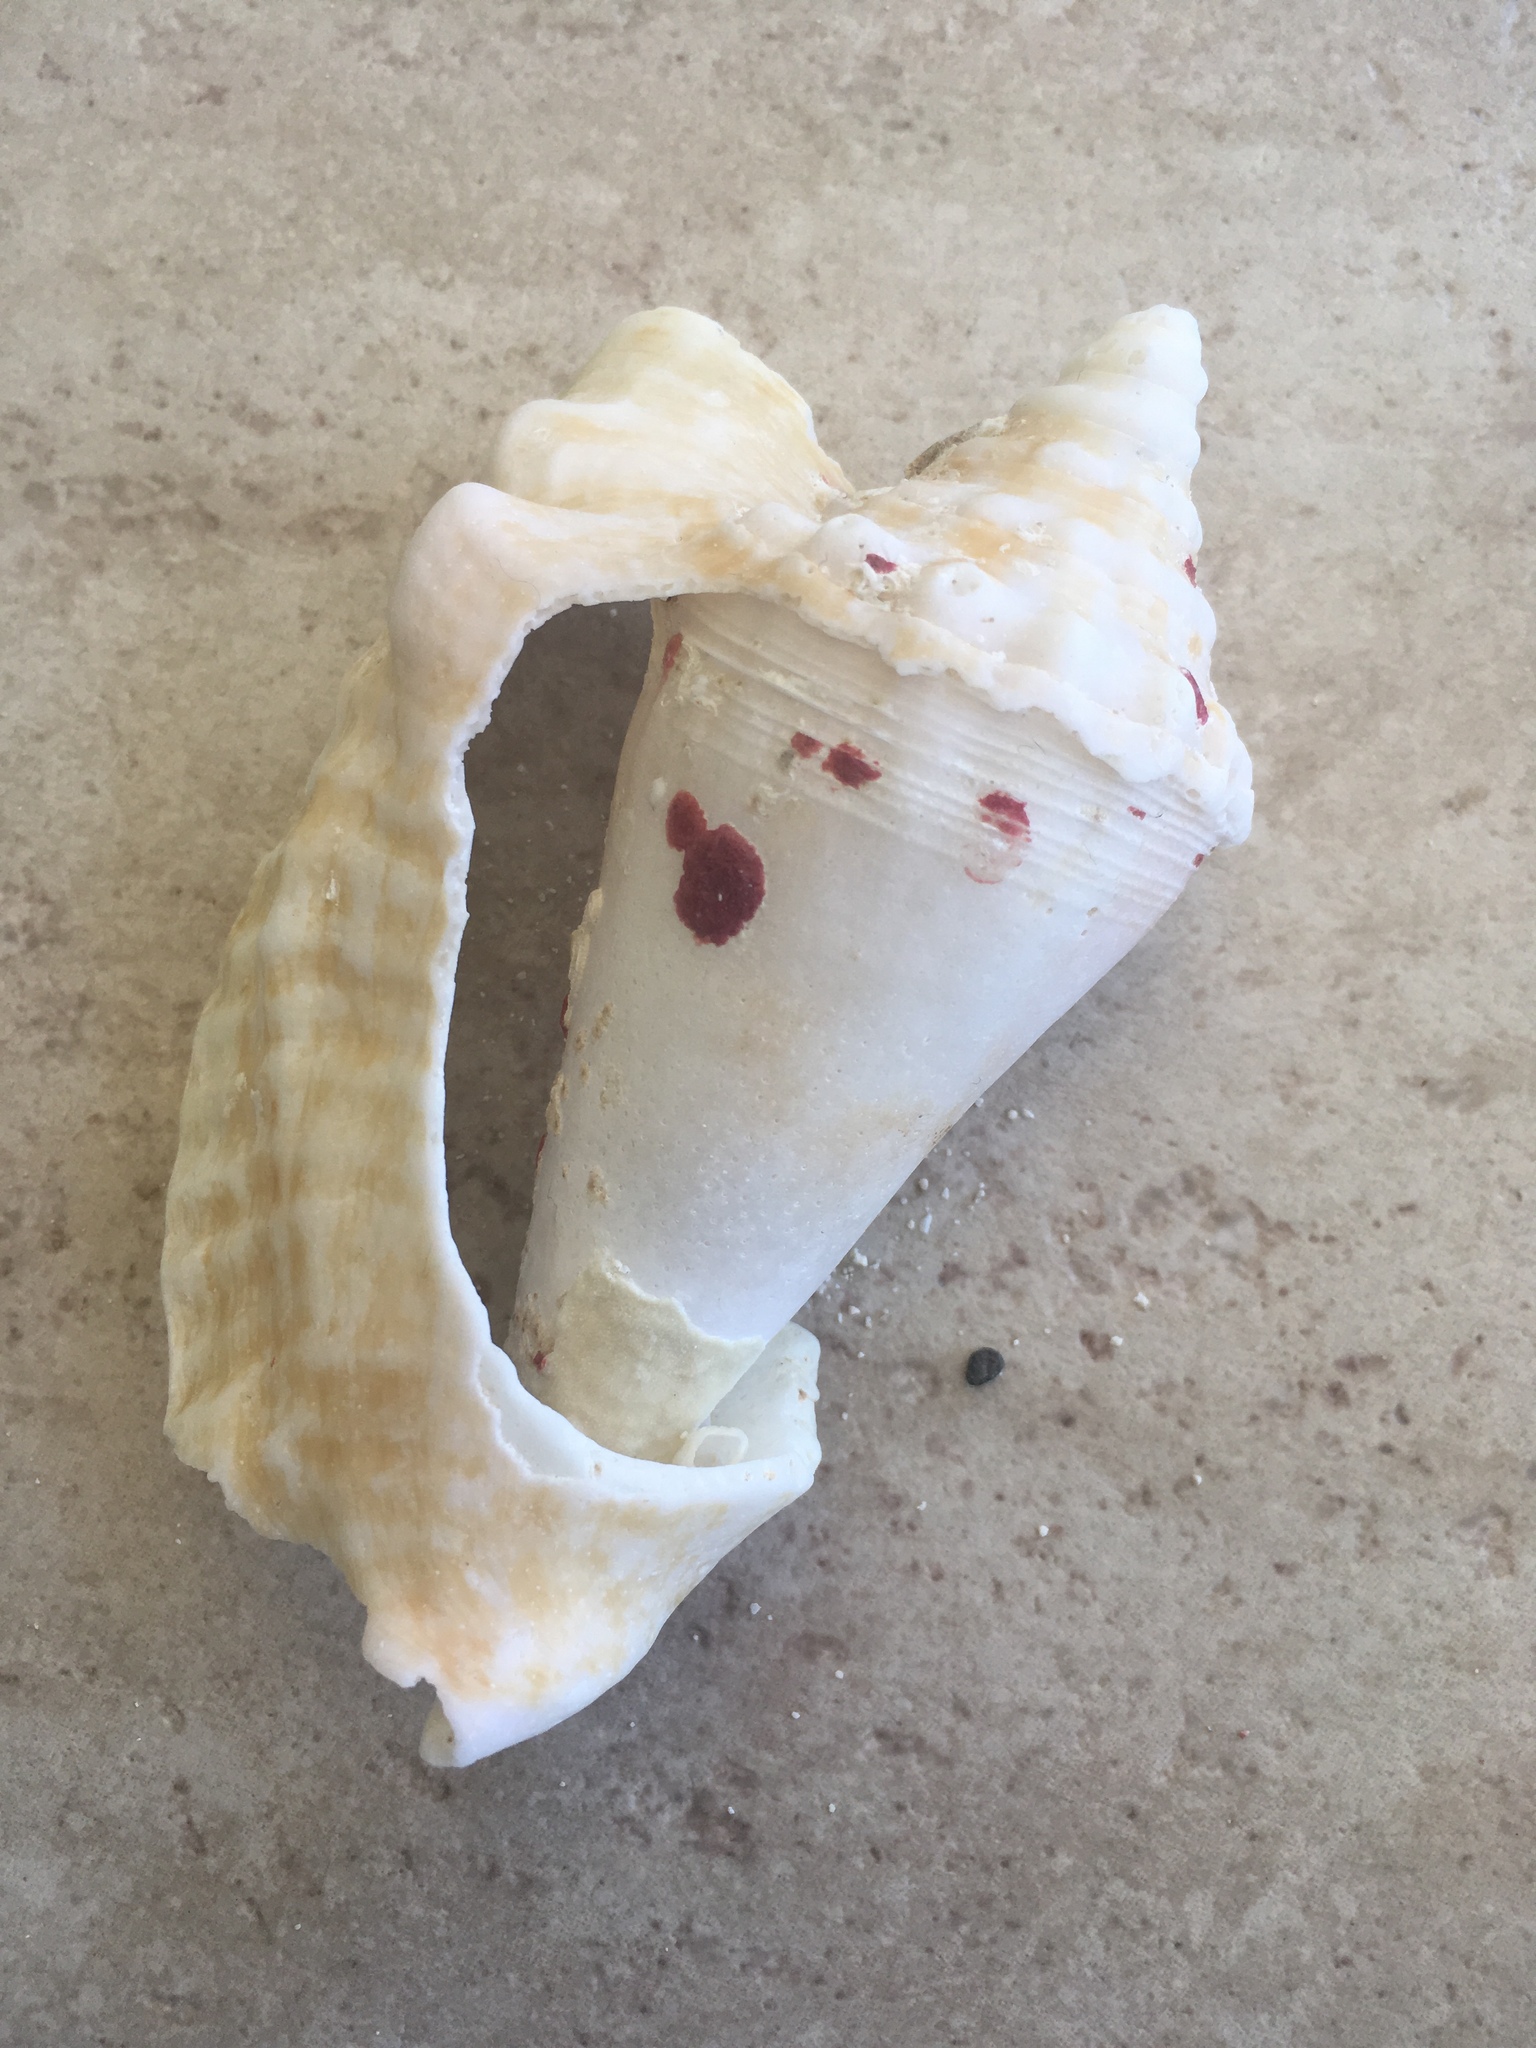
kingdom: Animalia
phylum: Mollusca
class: Gastropoda
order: Littorinimorpha
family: Strombidae
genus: Lobatus
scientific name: Lobatus raninus
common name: Hawk-wing conch
